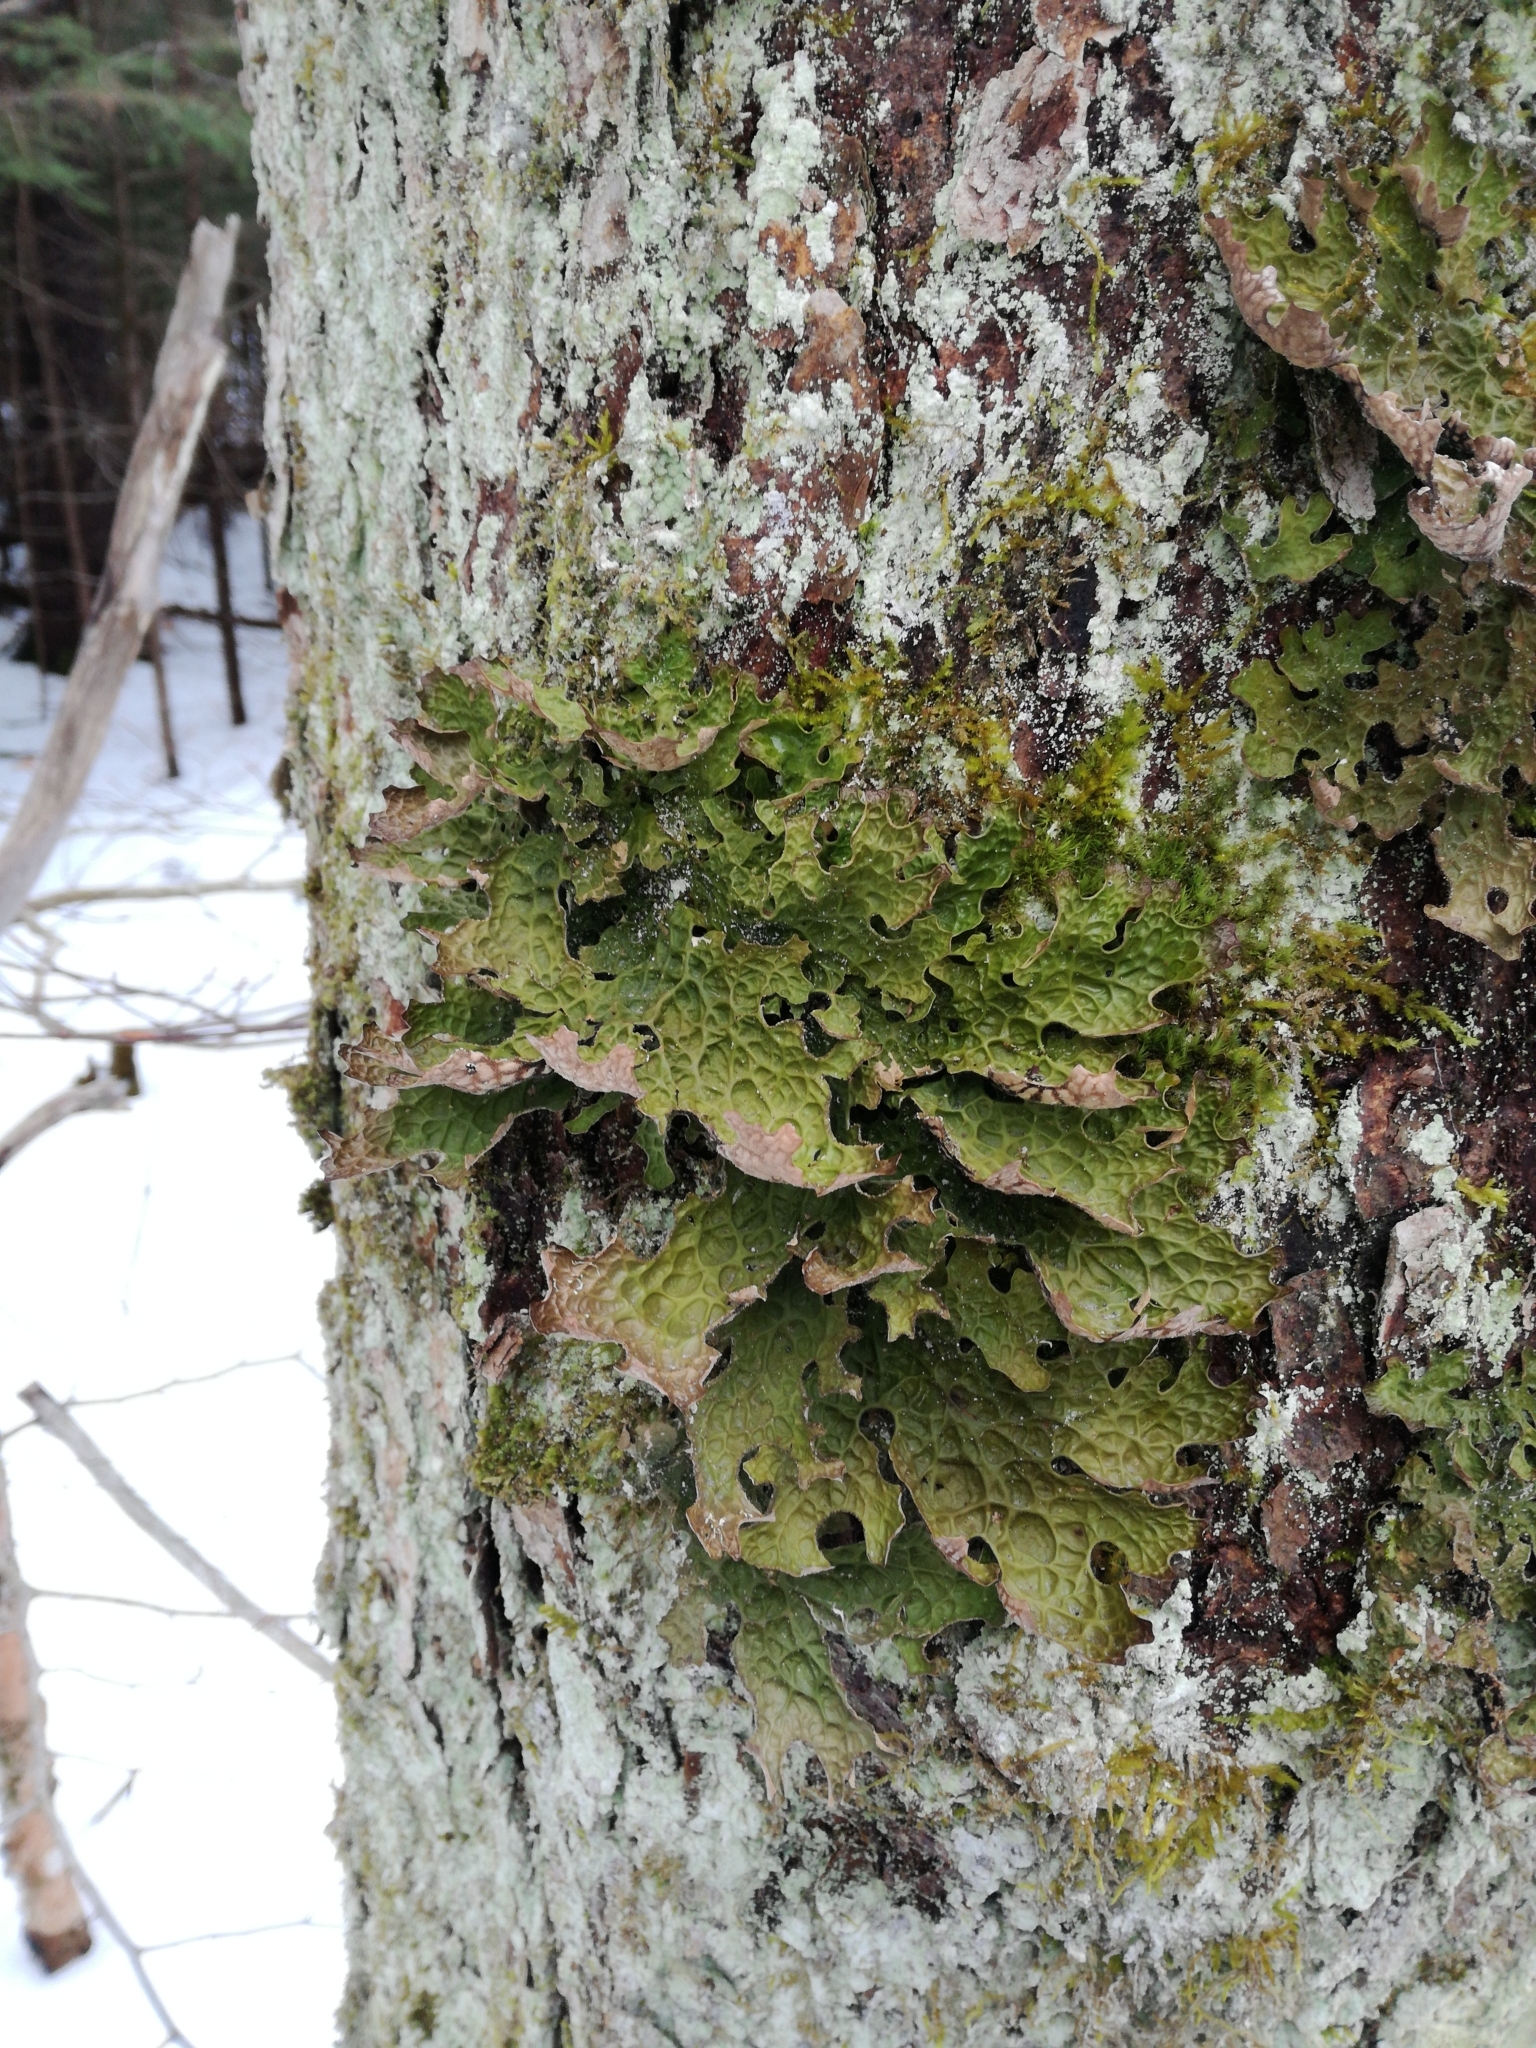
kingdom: Fungi
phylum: Ascomycota
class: Lecanoromycetes
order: Peltigerales
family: Lobariaceae
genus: Lobaria
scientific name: Lobaria pulmonaria
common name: Lungwort
